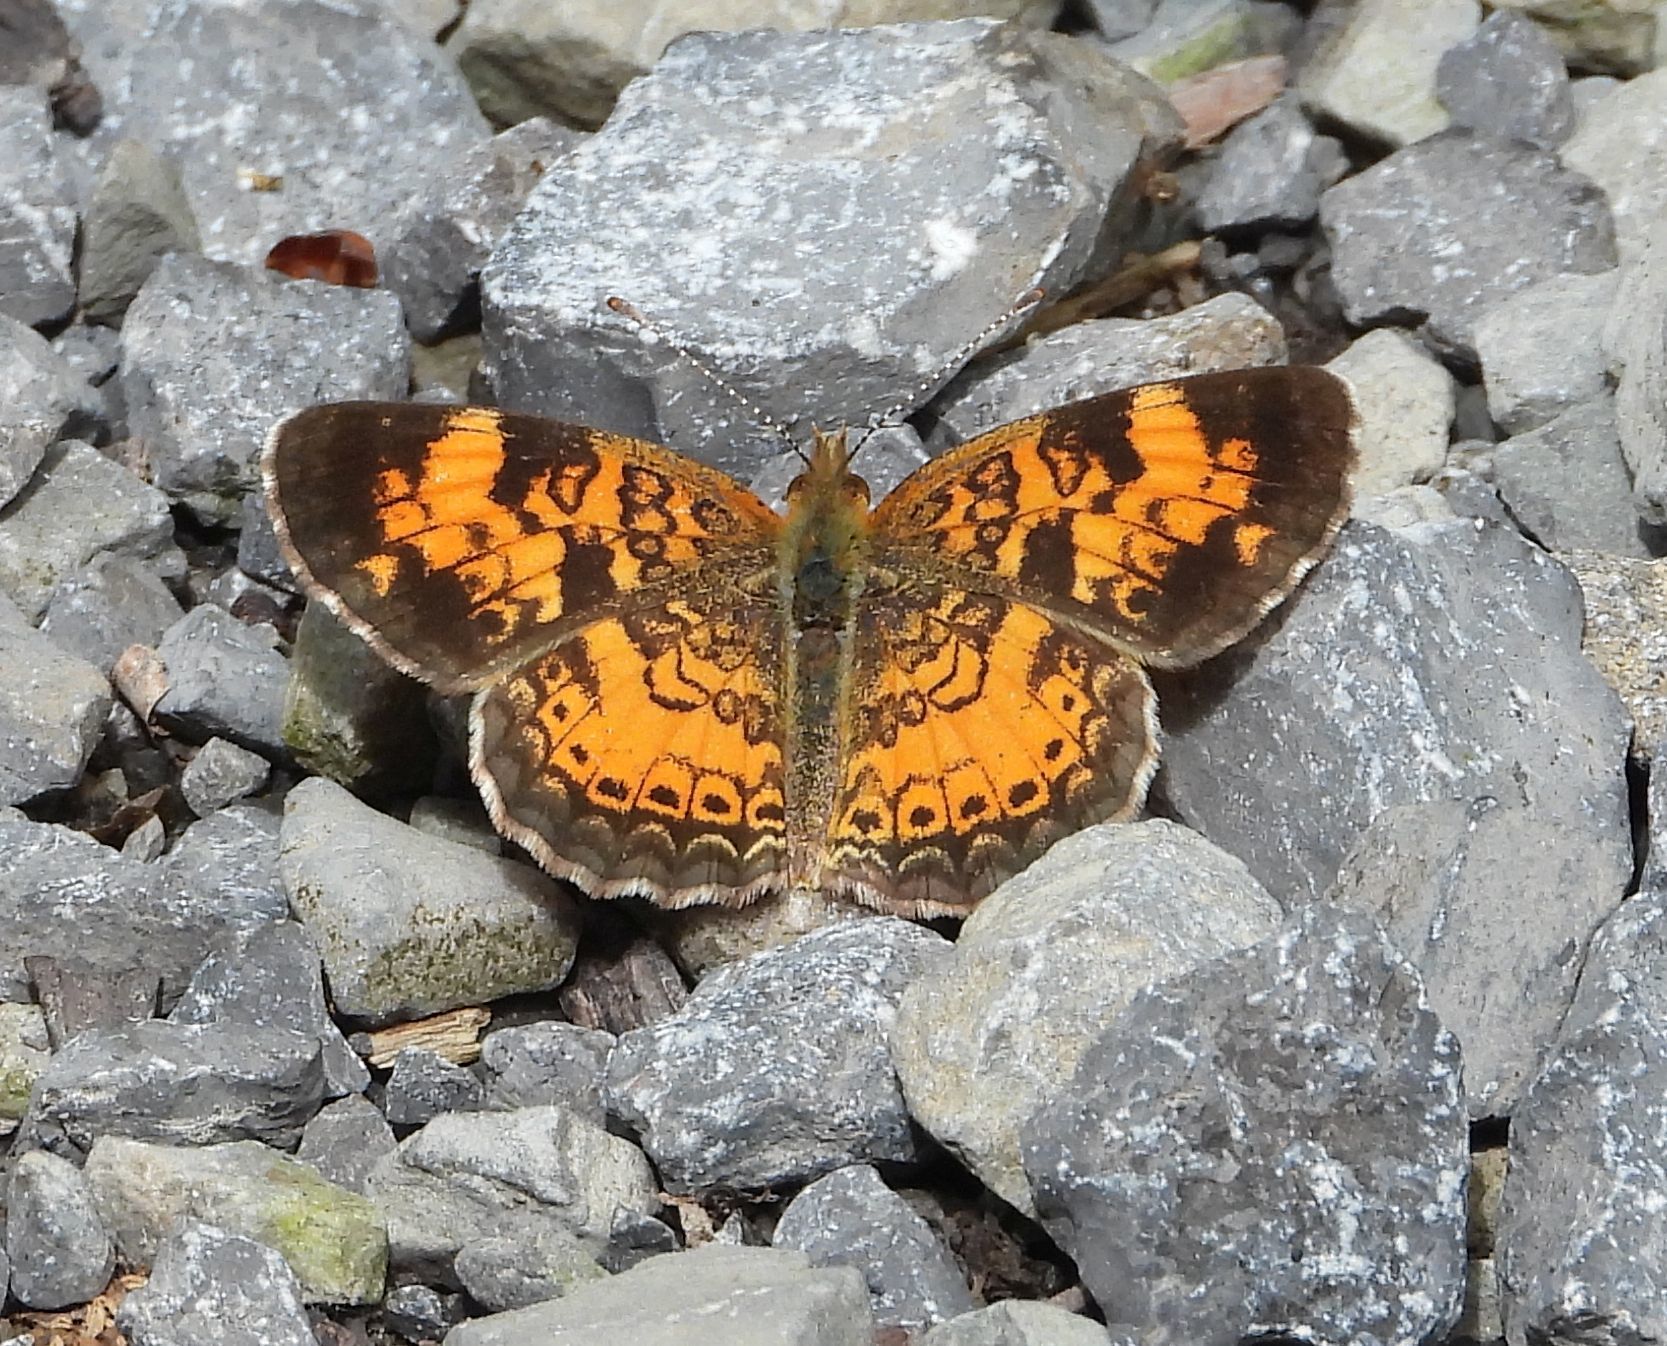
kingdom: Animalia
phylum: Arthropoda
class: Insecta
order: Lepidoptera
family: Nymphalidae
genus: Phyciodes
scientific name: Phyciodes tharos
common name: Pearl crescent
